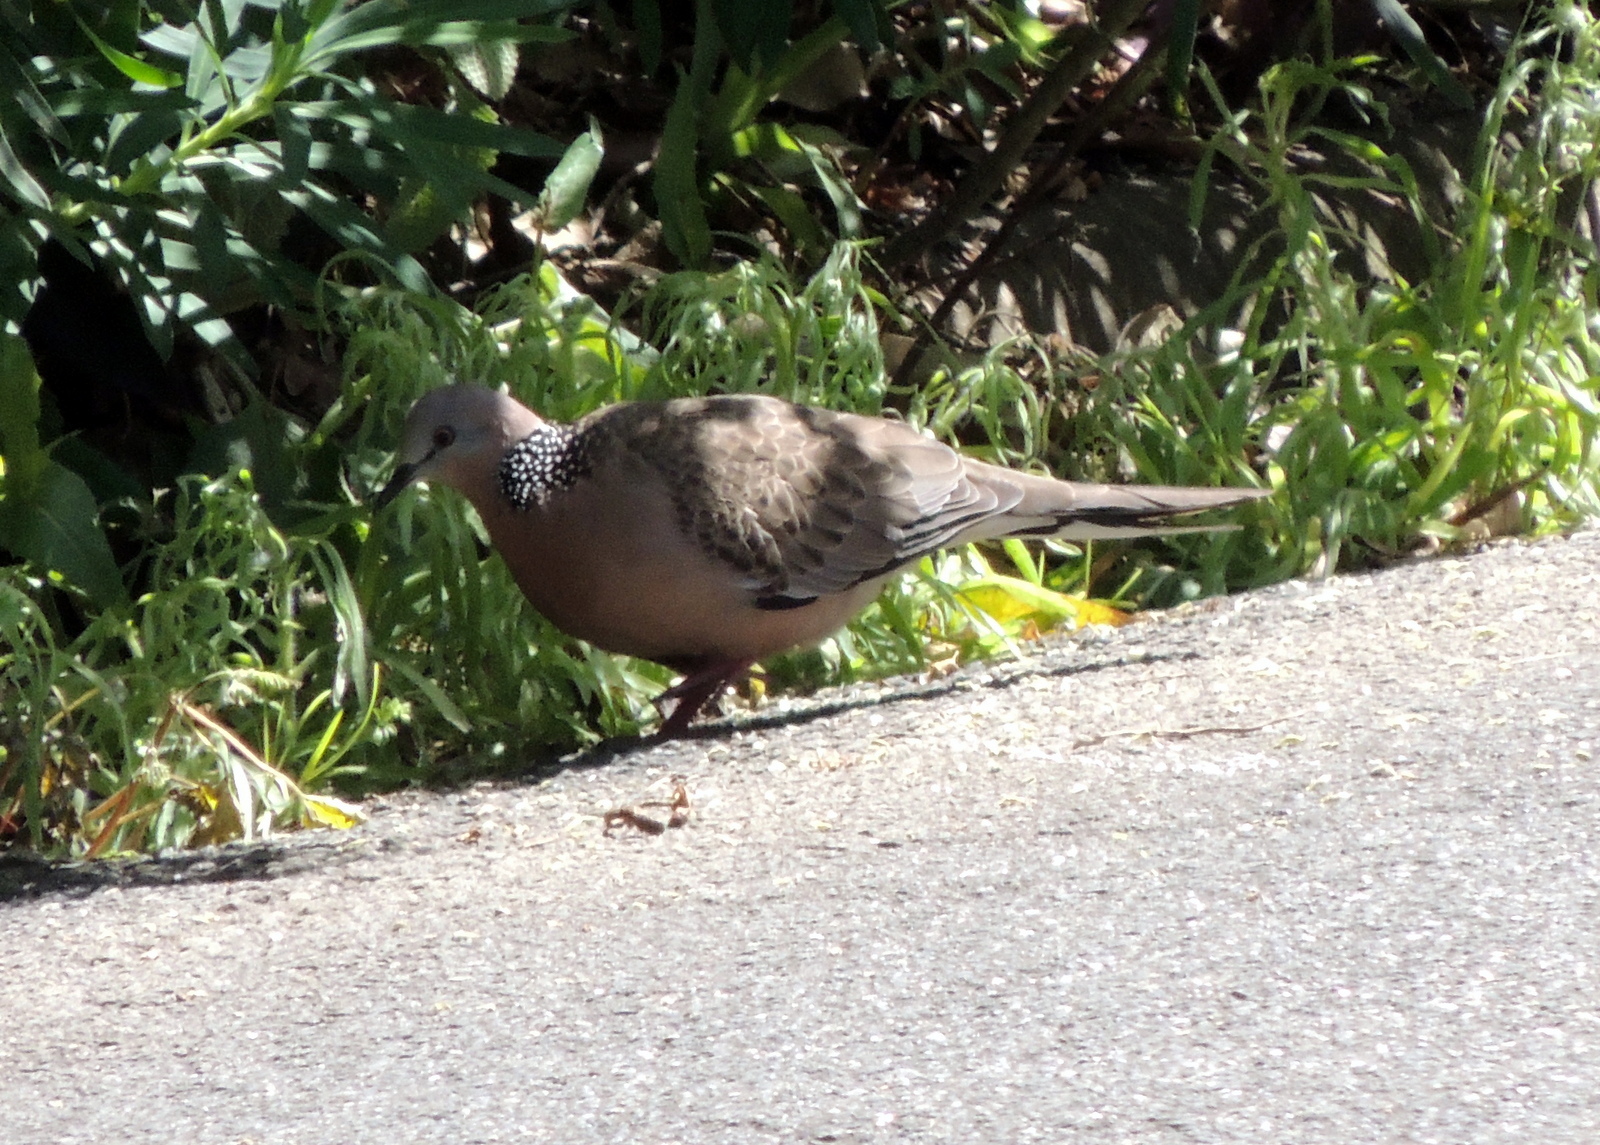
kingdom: Animalia
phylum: Chordata
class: Aves
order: Columbiformes
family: Columbidae
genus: Spilopelia
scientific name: Spilopelia chinensis
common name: Spotted dove
